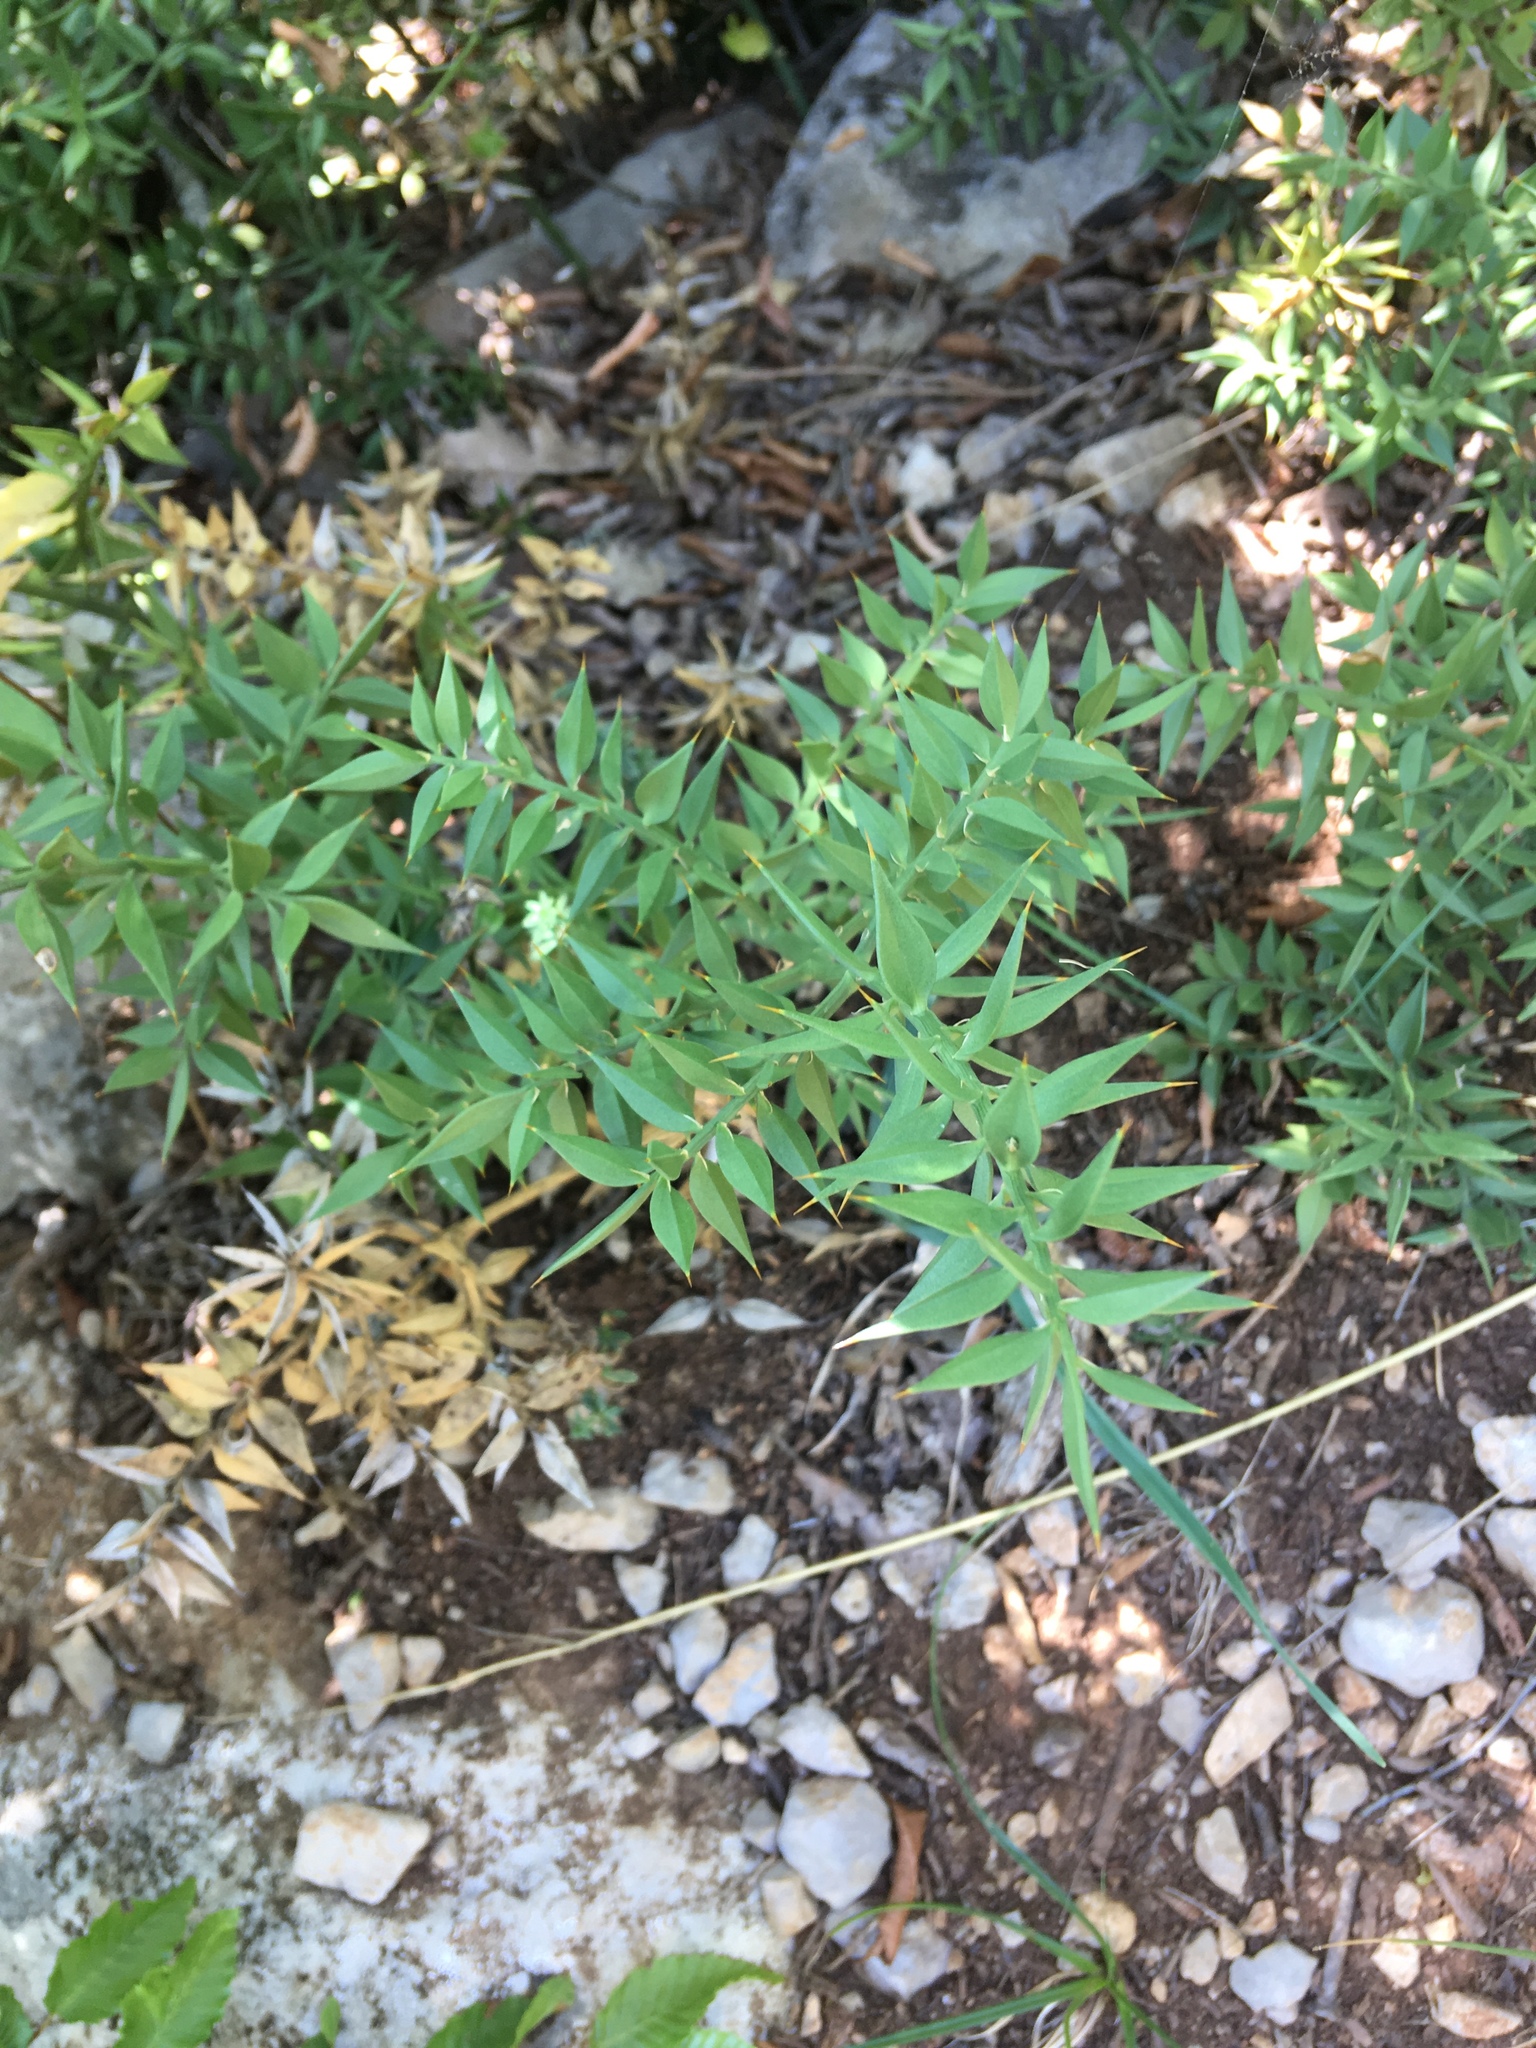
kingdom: Plantae
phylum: Tracheophyta
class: Liliopsida
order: Asparagales
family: Asparagaceae
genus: Ruscus
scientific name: Ruscus aculeatus
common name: Butcher's-broom
